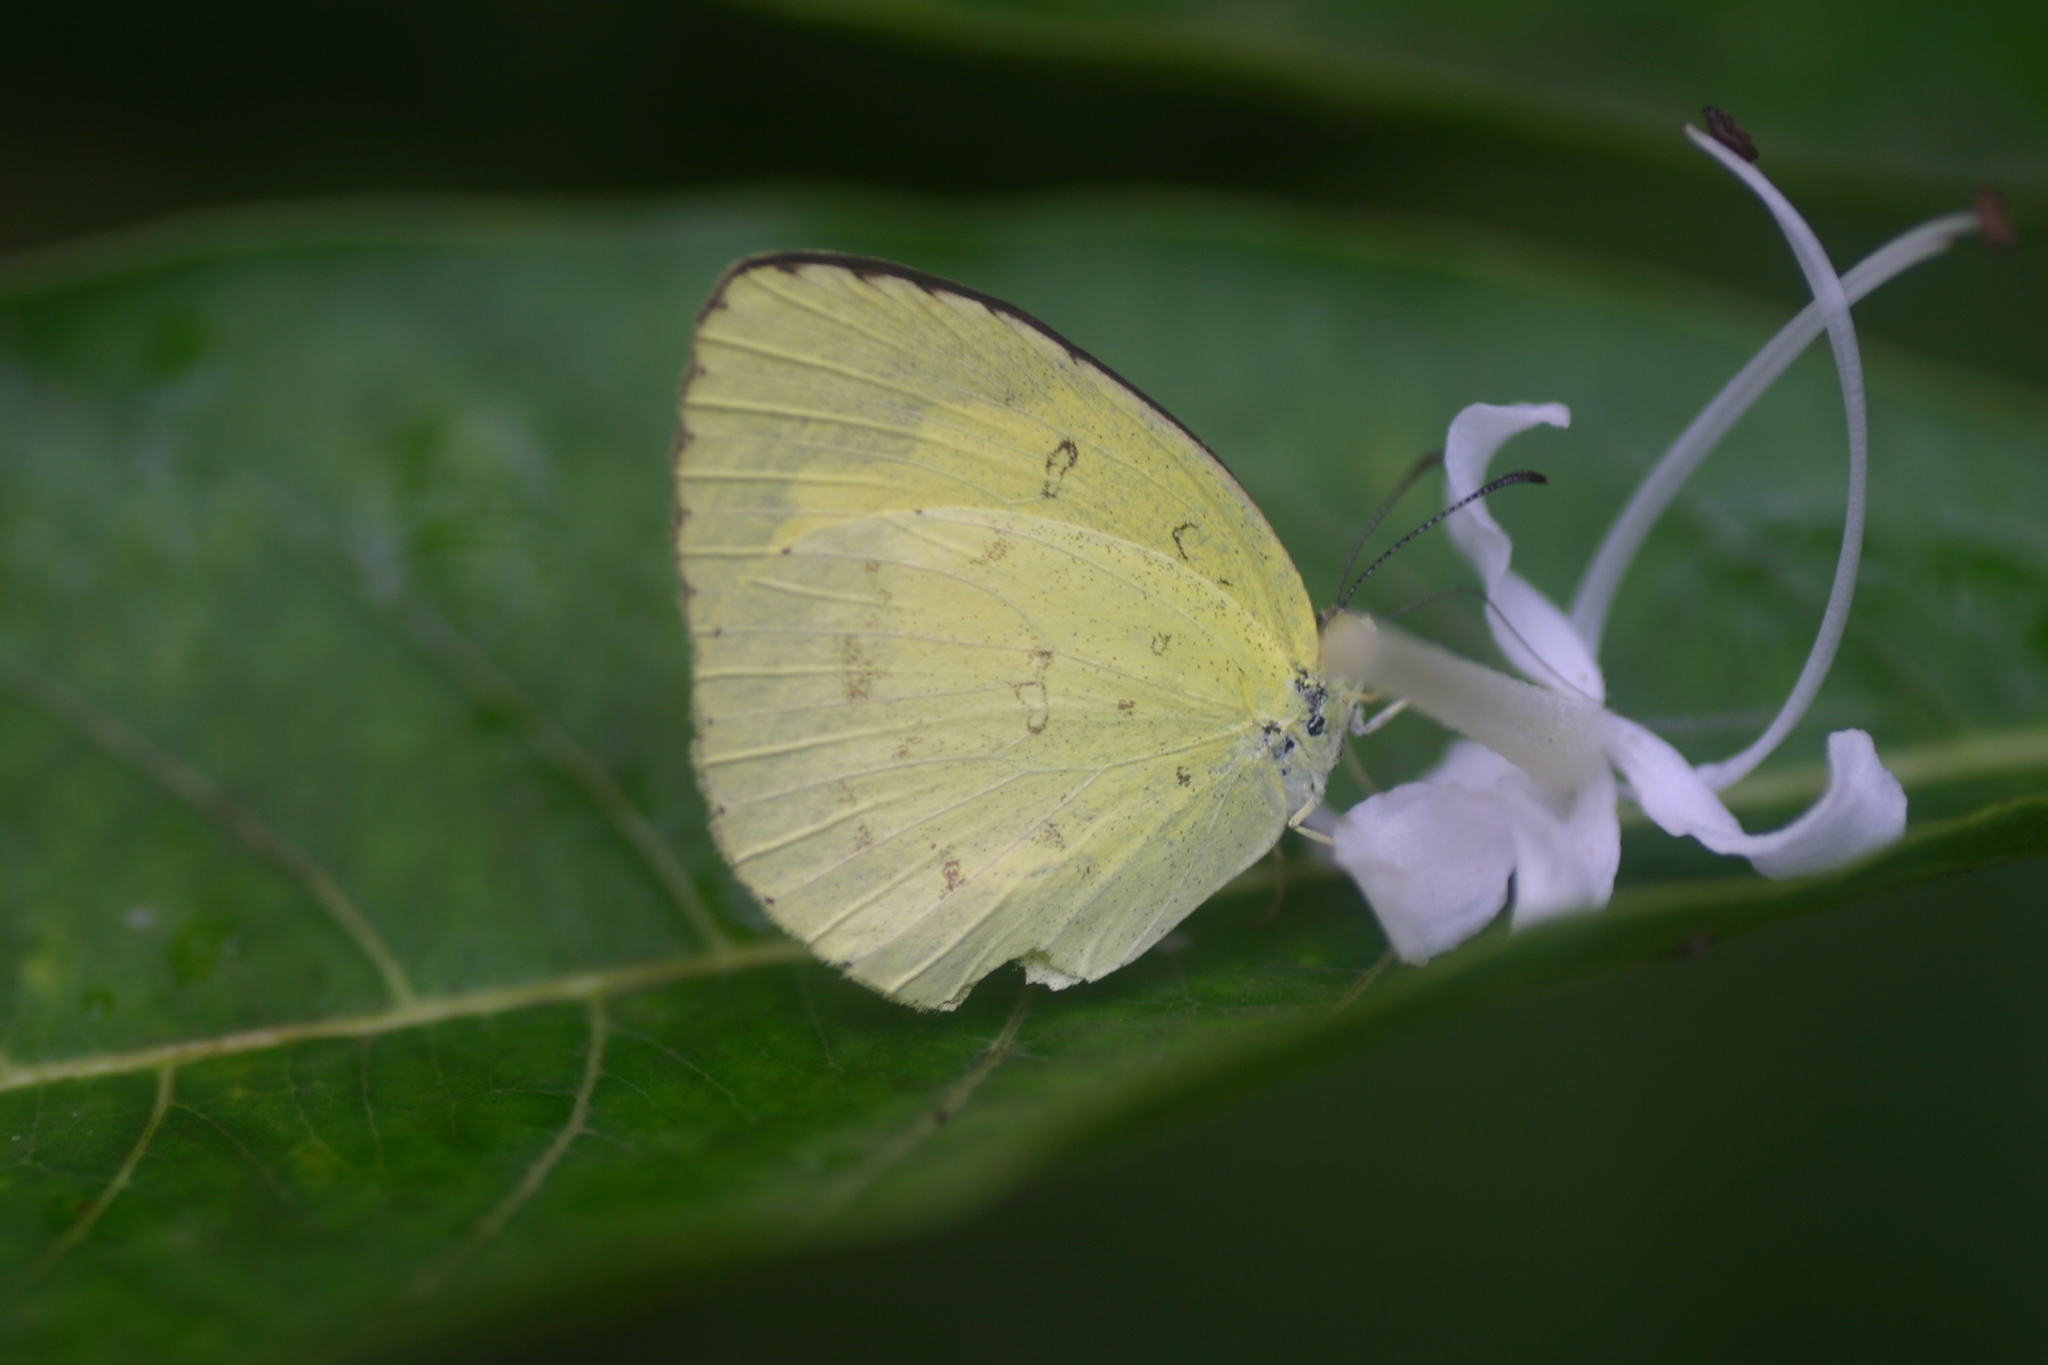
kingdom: Animalia
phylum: Arthropoda
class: Insecta
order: Lepidoptera
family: Pieridae
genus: Eurema
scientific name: Eurema hecabe
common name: Pale grass yellow
